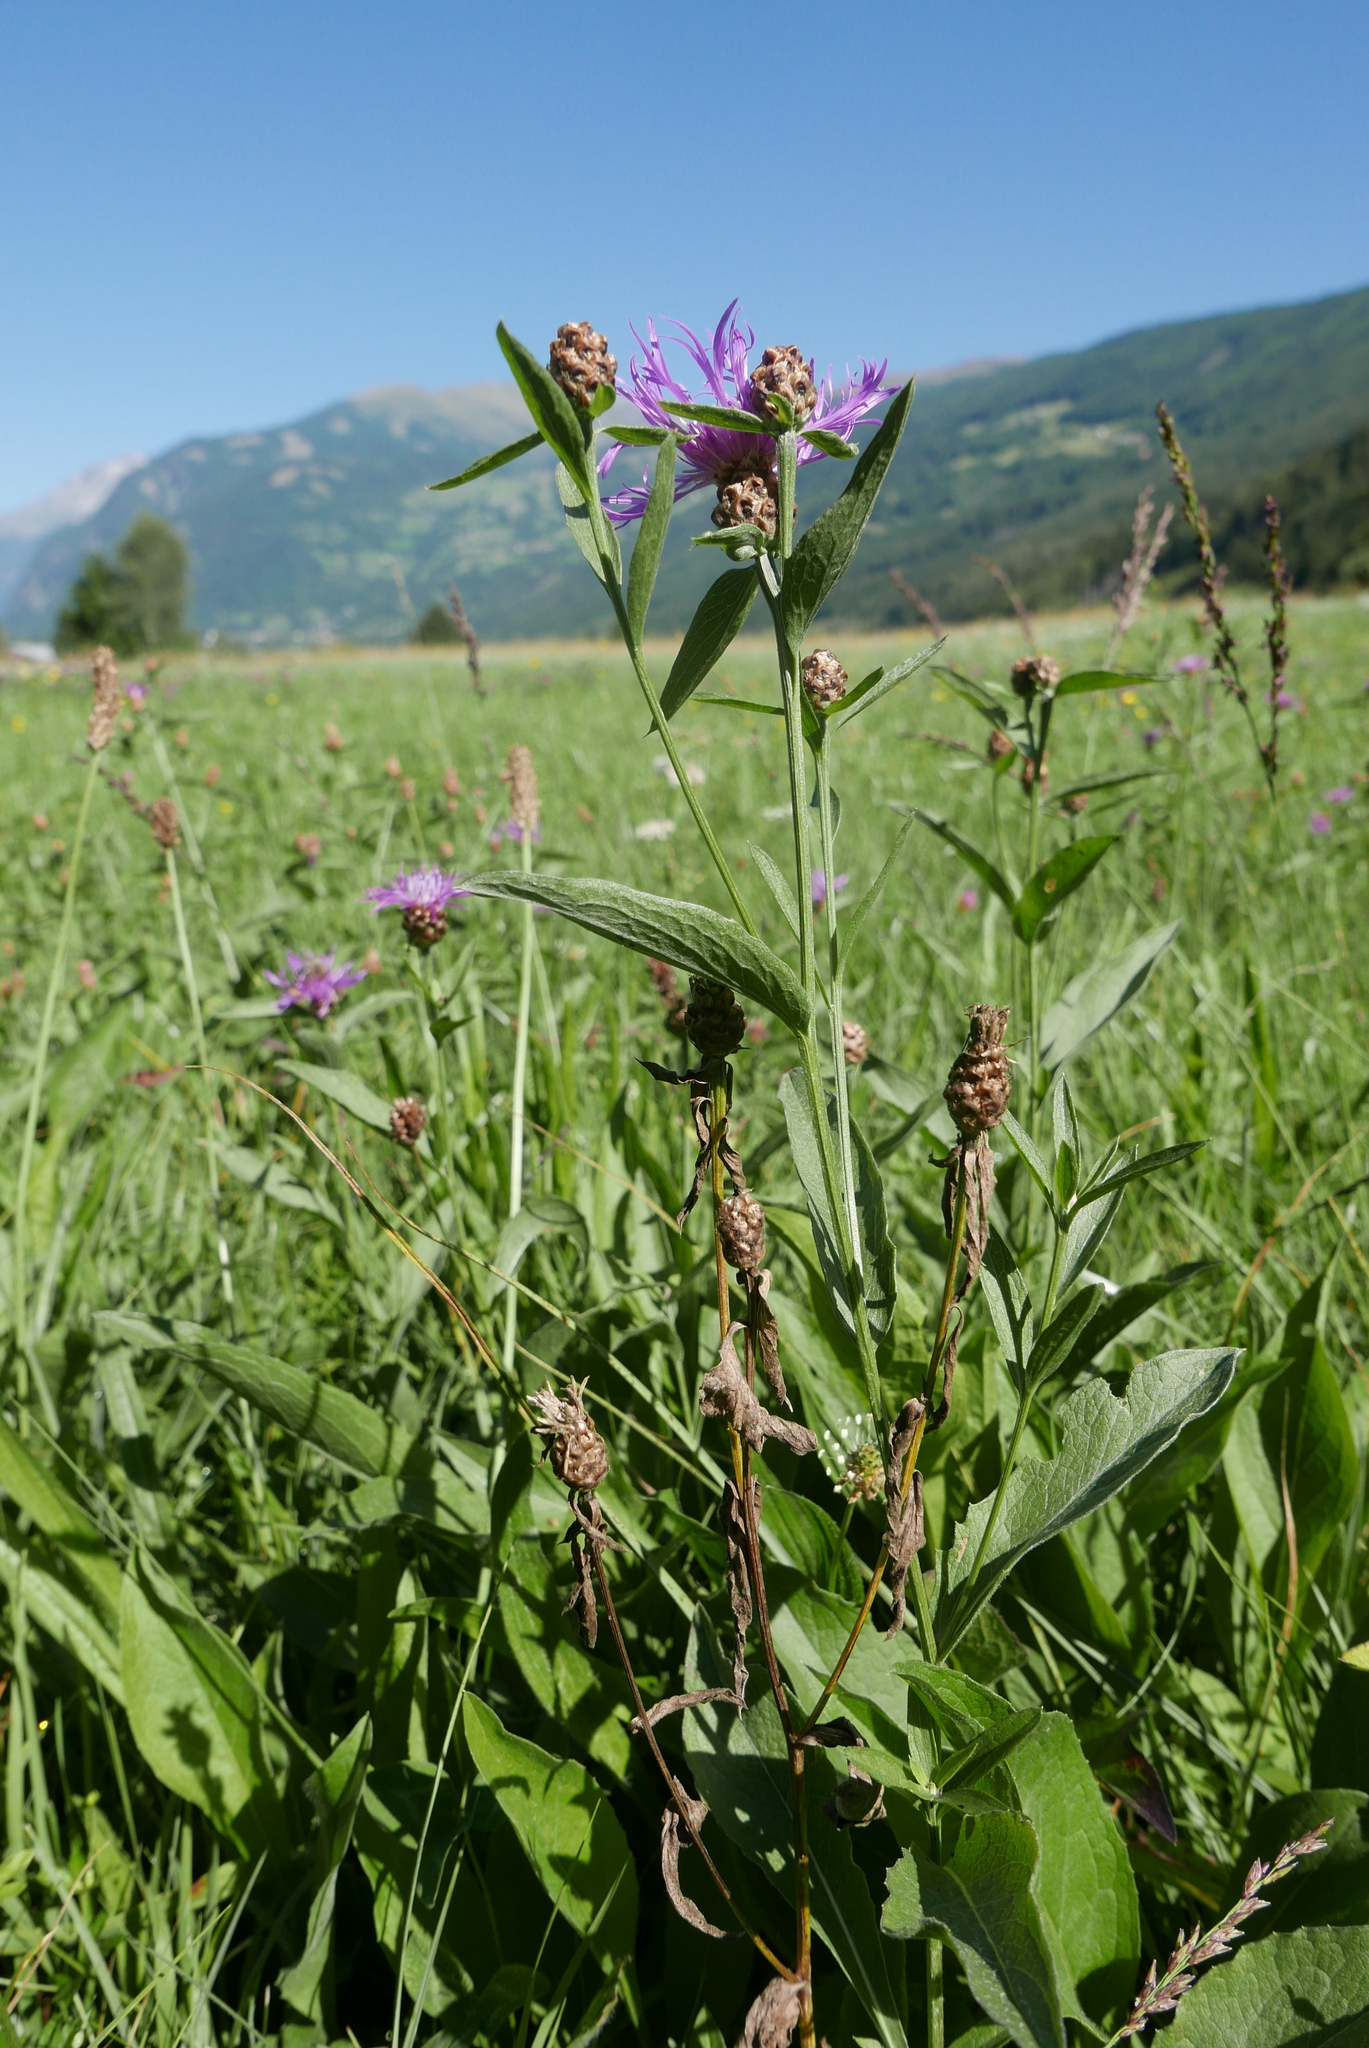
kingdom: Plantae
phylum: Tracheophyta
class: Magnoliopsida
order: Asterales
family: Asteraceae
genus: Centaurea
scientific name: Centaurea jacea
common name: Brown knapweed
